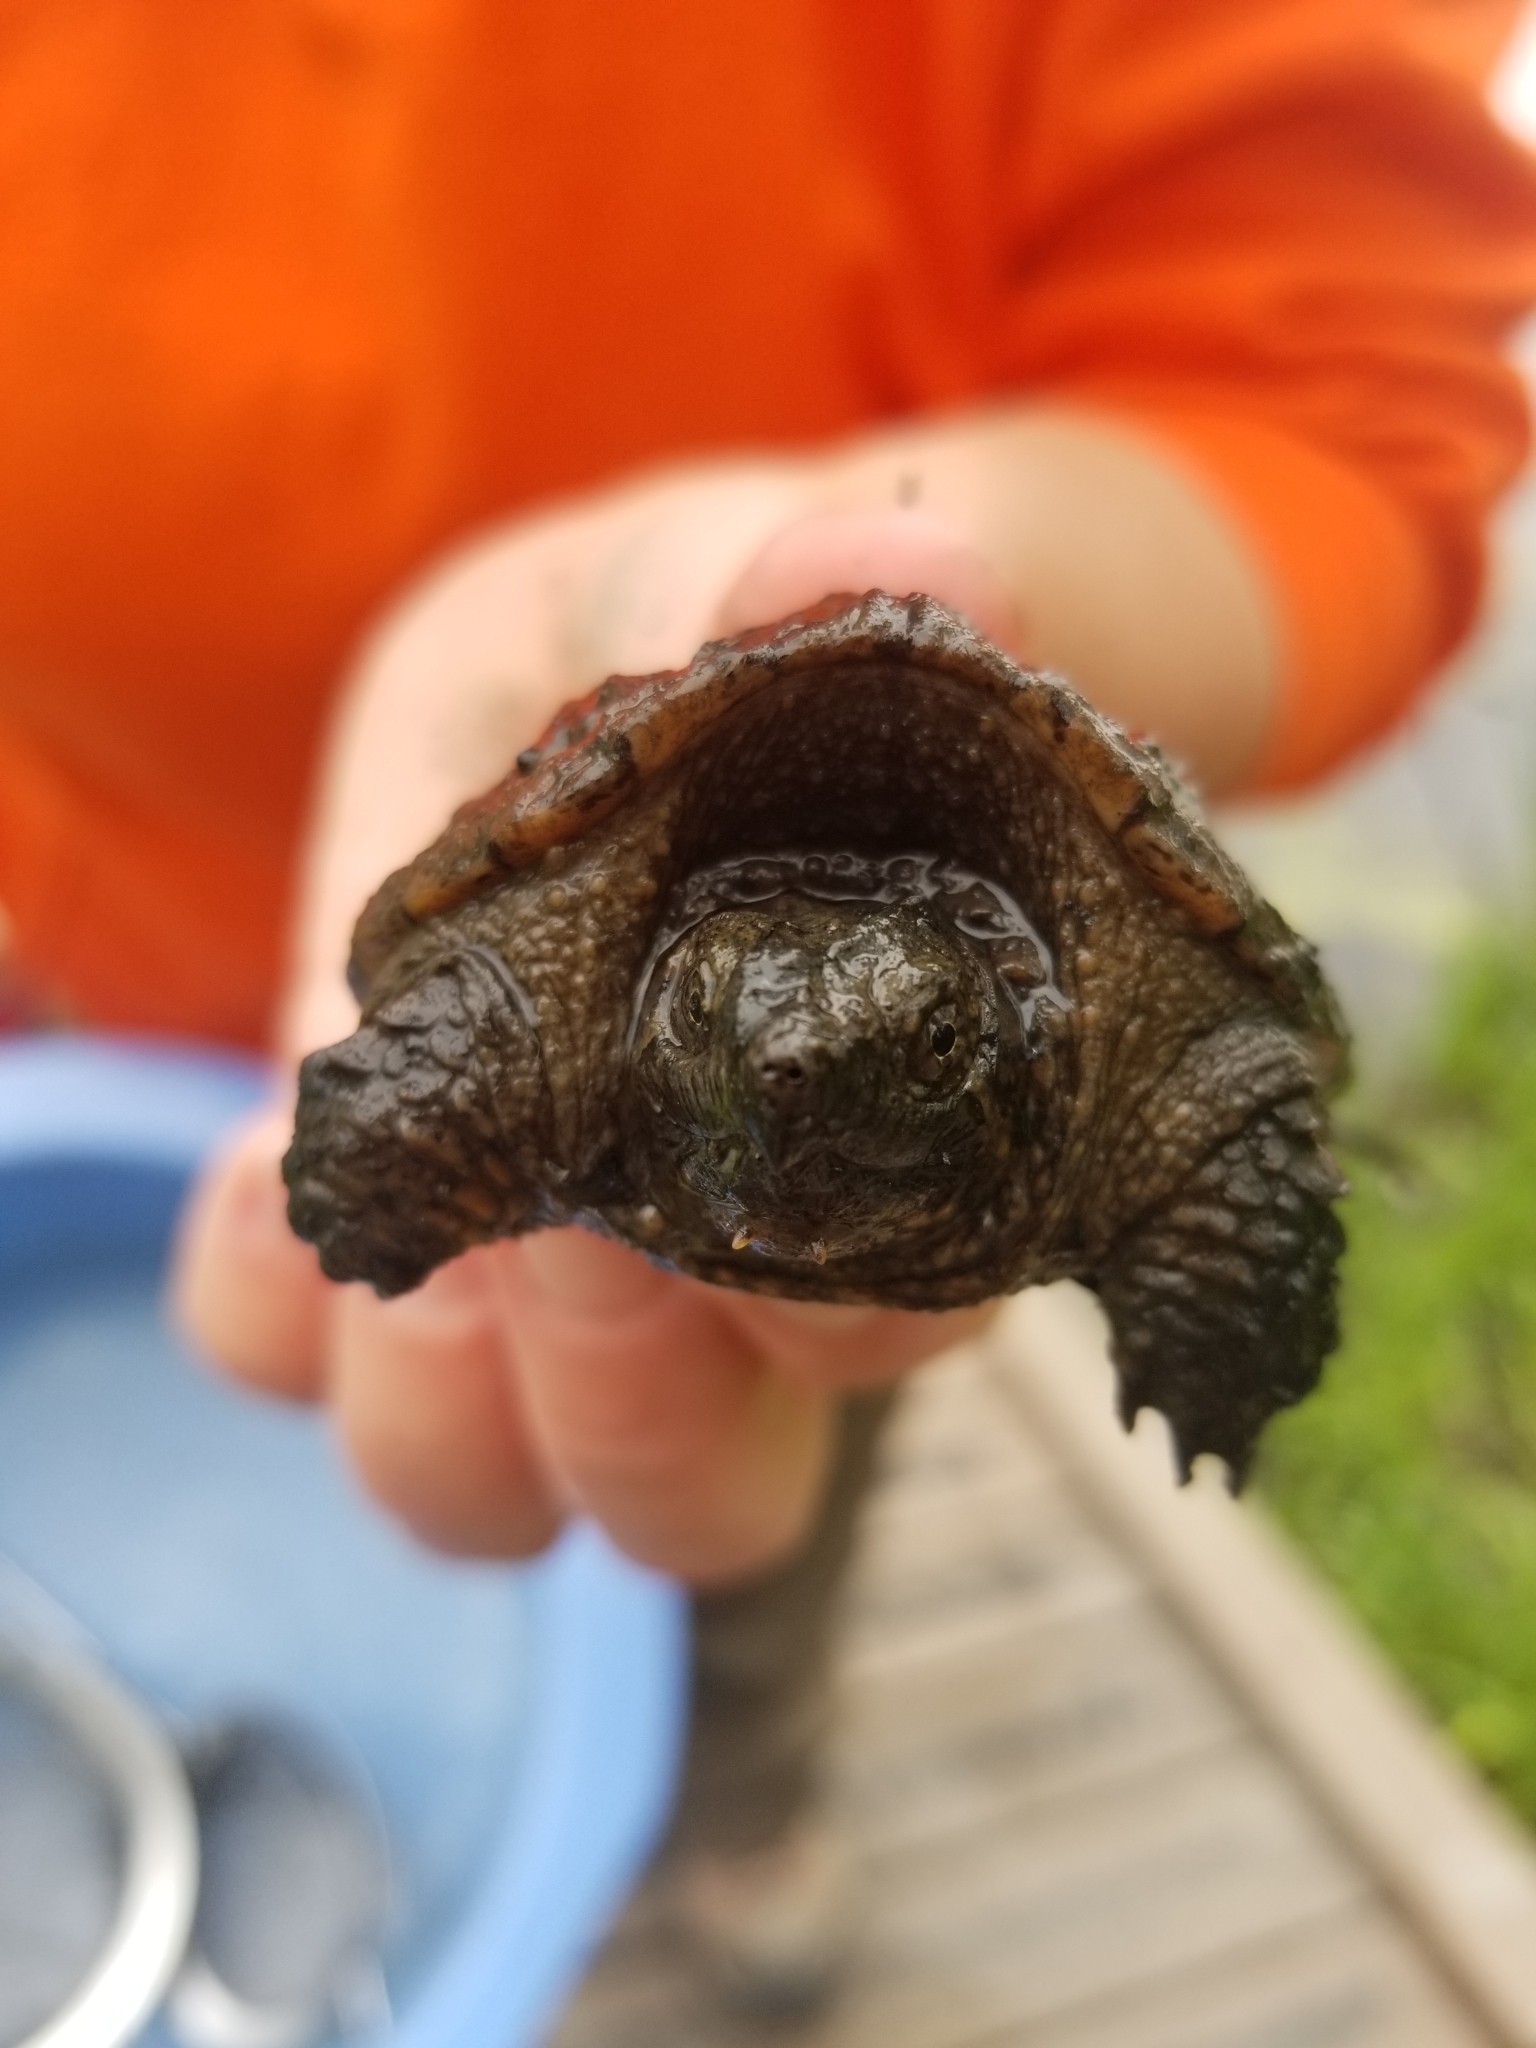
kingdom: Animalia
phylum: Chordata
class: Testudines
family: Chelydridae
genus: Chelydra
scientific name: Chelydra serpentina
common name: Common snapping turtle
